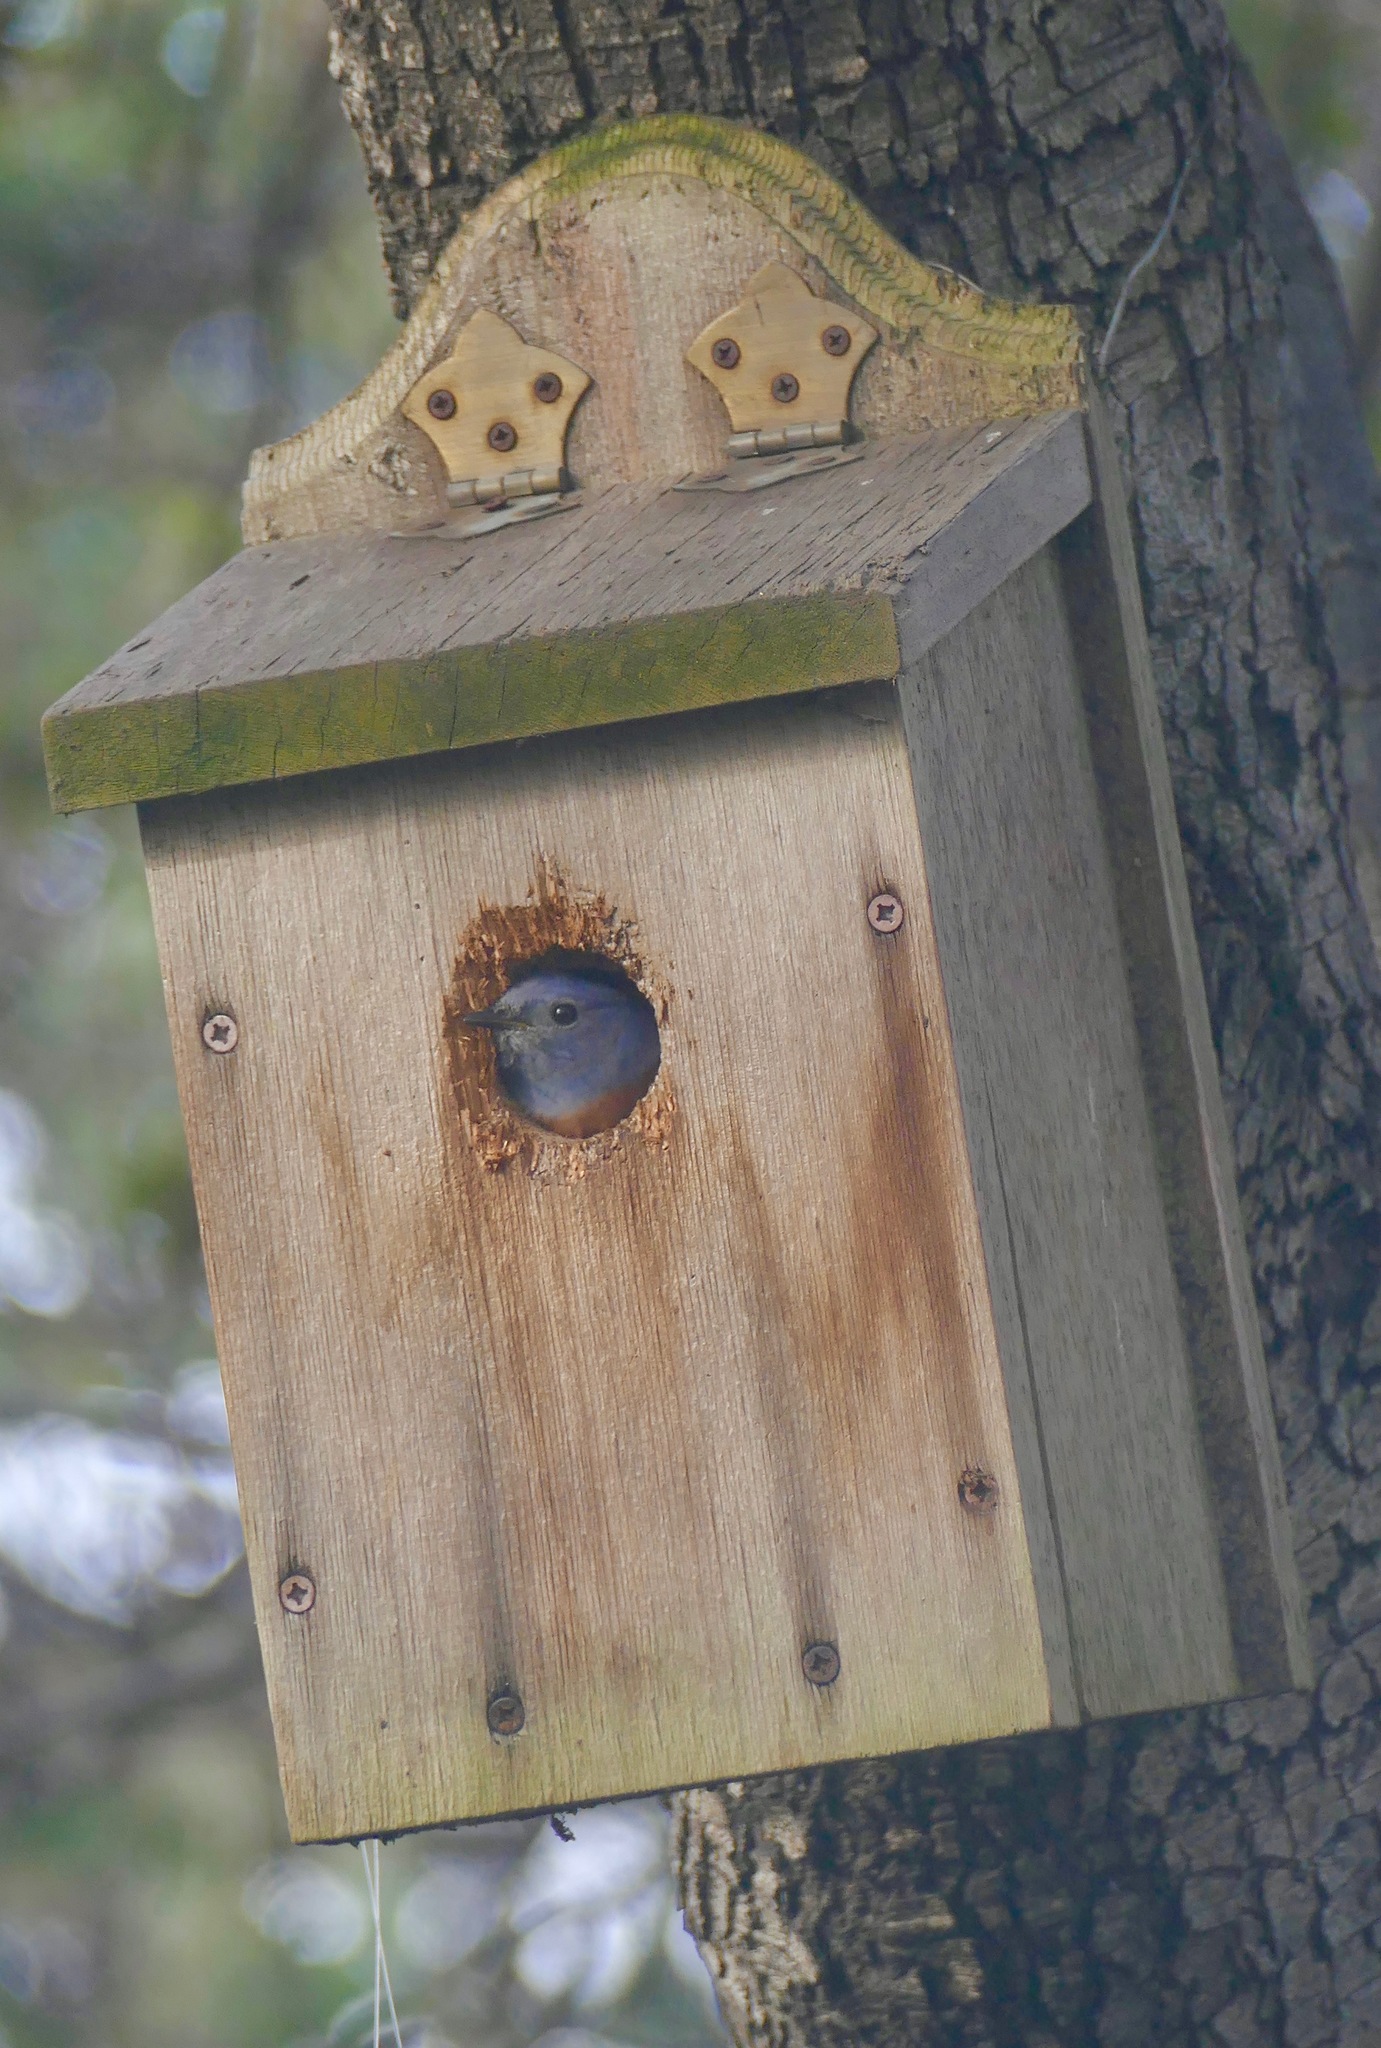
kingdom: Animalia
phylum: Chordata
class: Aves
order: Passeriformes
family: Turdidae
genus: Sialia
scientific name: Sialia mexicana
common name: Western bluebird
